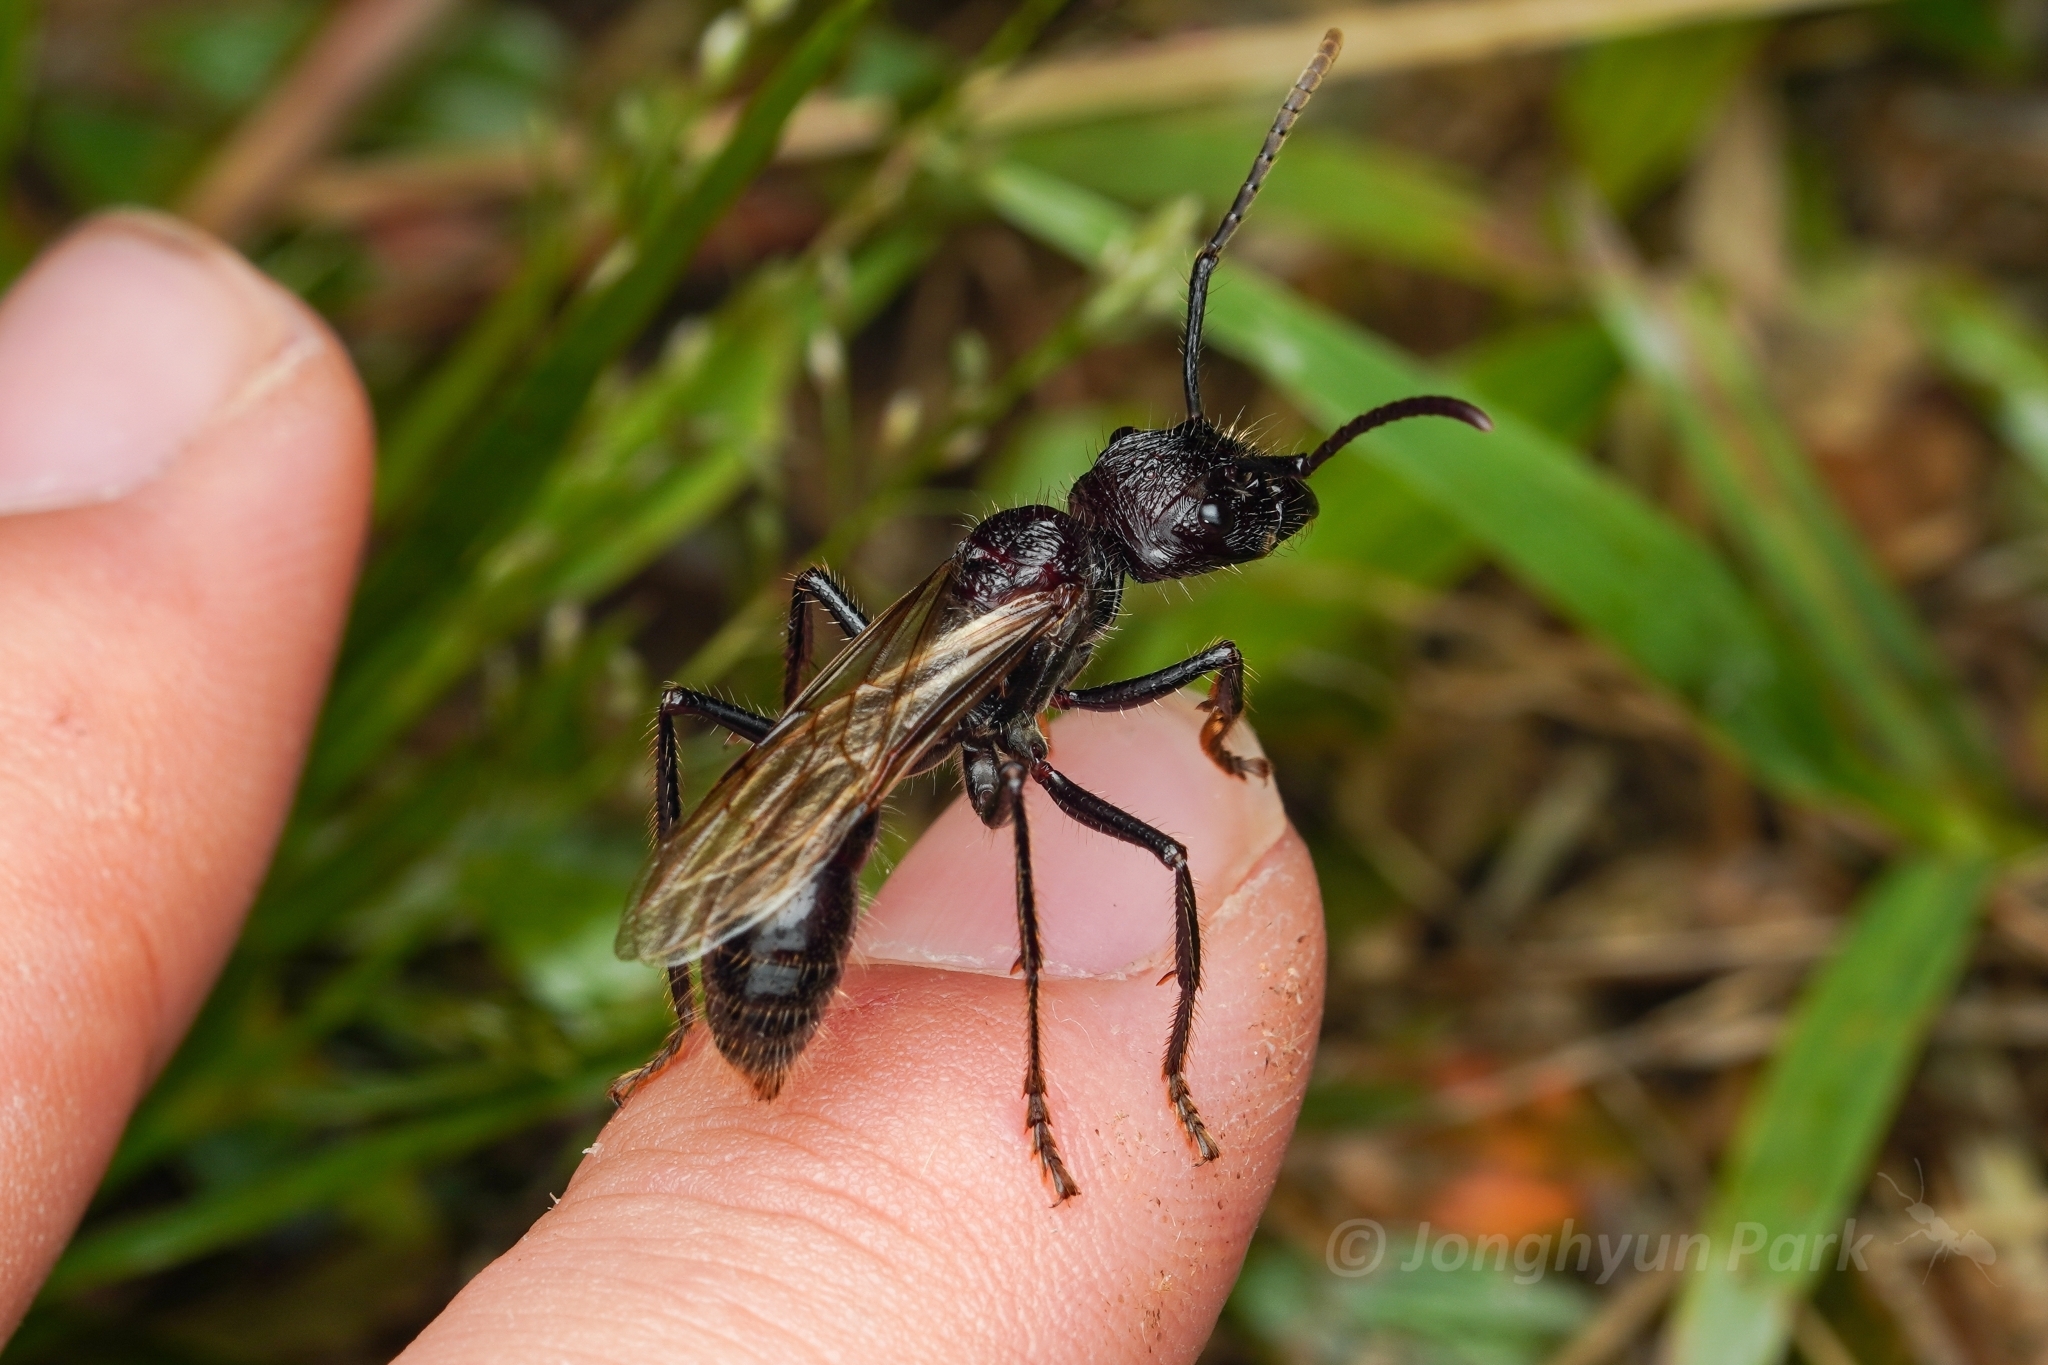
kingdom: Animalia
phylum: Arthropoda
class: Insecta
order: Hymenoptera
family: Formicidae
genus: Paraponera
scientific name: Paraponera clavata
